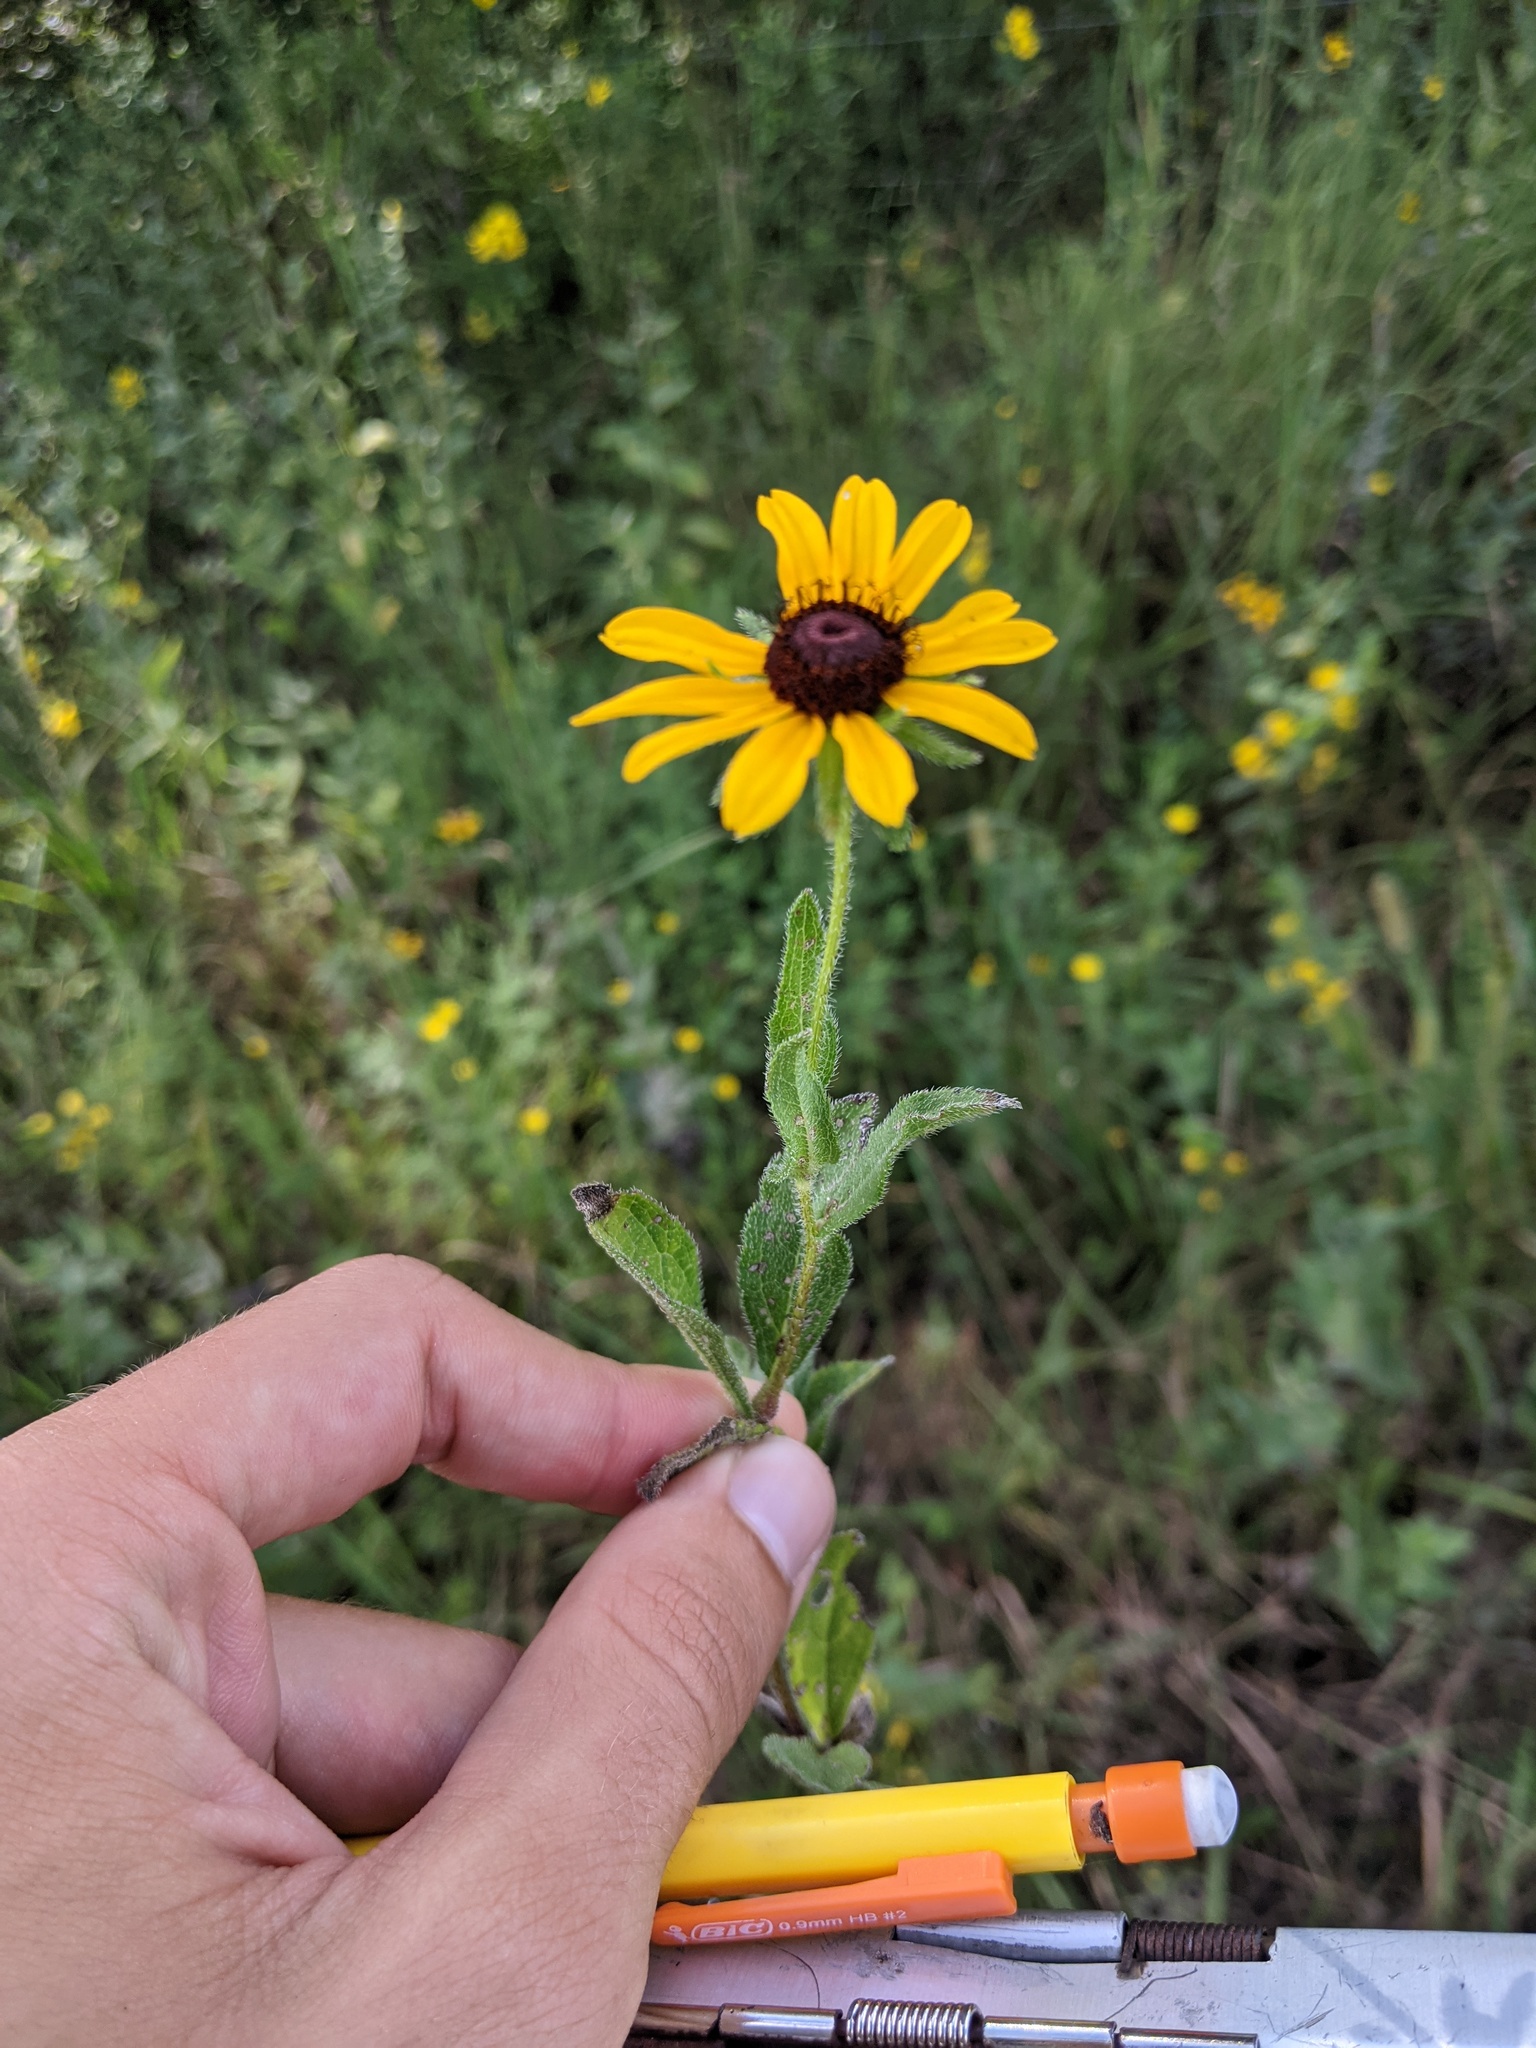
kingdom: Plantae
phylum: Tracheophyta
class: Magnoliopsida
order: Asterales
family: Asteraceae
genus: Rudbeckia
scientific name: Rudbeckia hirta
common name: Black-eyed-susan
